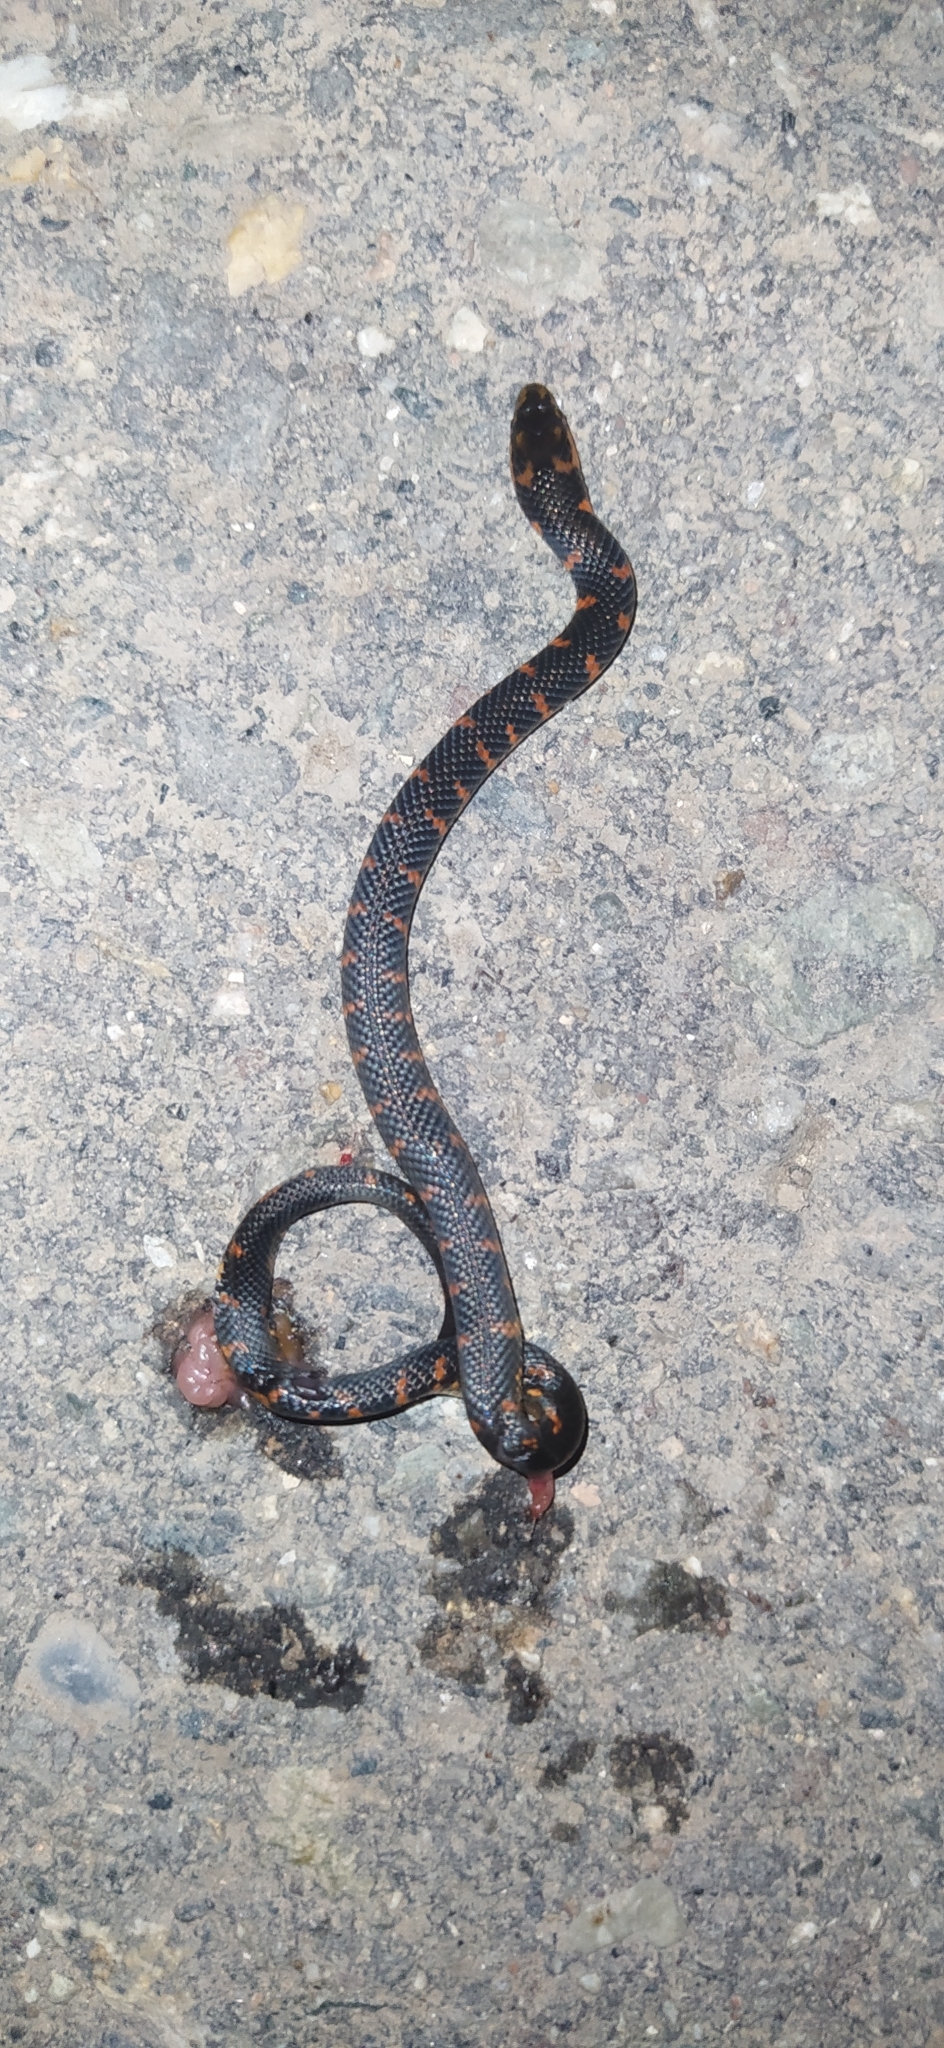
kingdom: Animalia
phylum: Chordata
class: Squamata
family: Colubridae
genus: Atractus
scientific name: Atractus crassicaudatus
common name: Thickhead ground snake
